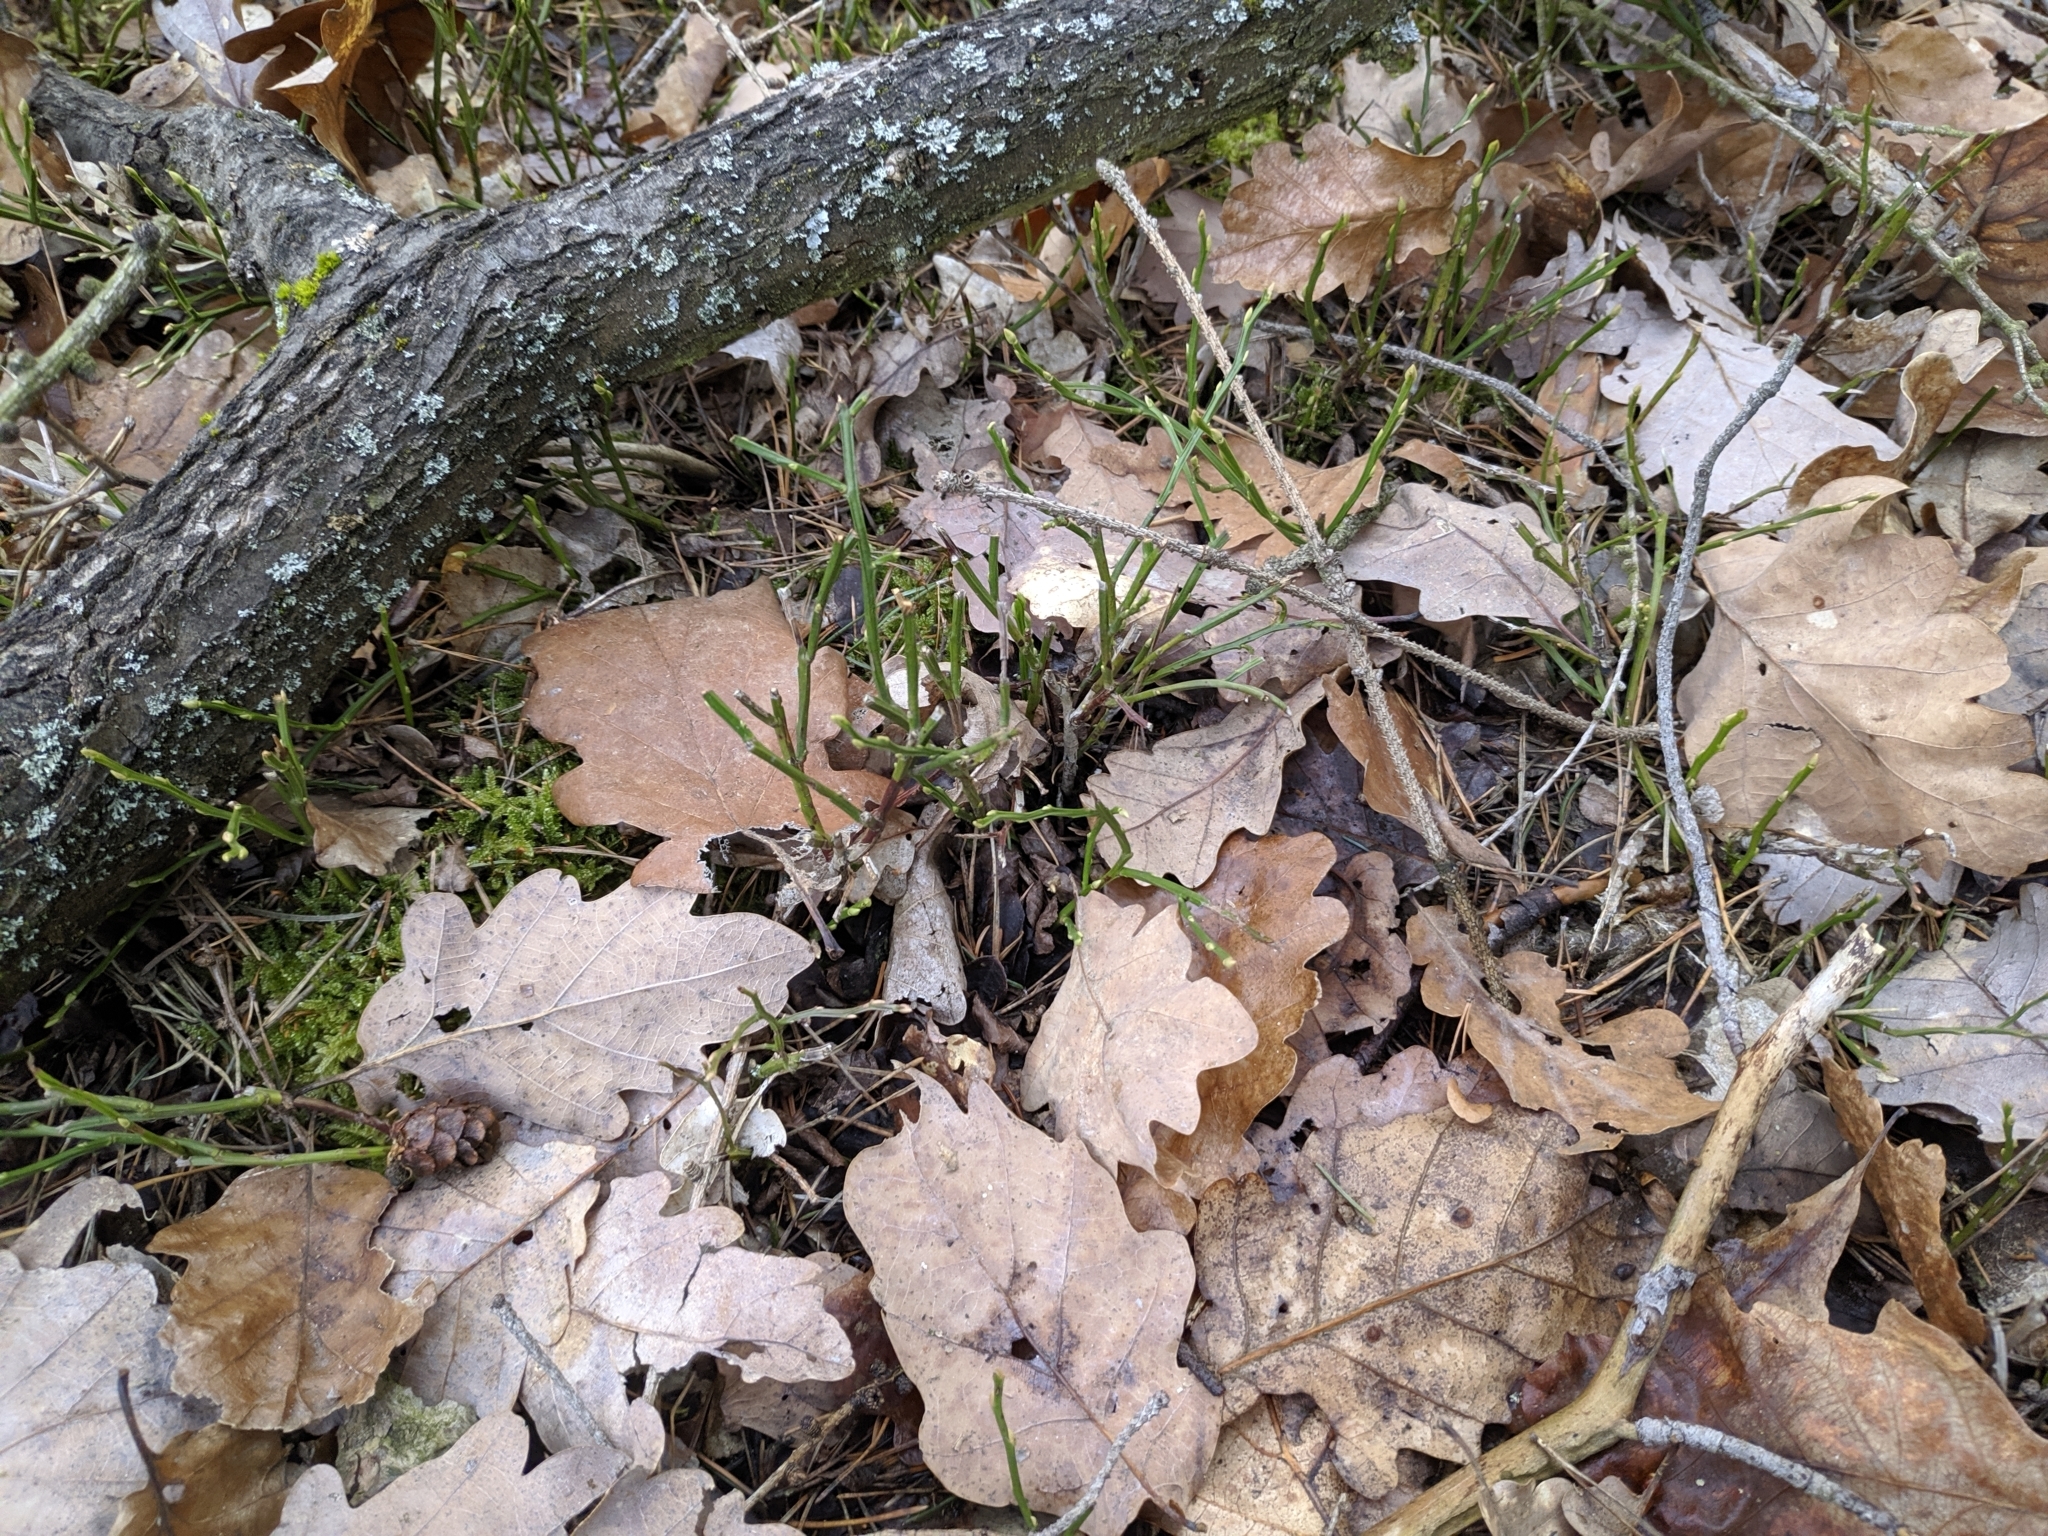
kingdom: Plantae
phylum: Tracheophyta
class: Magnoliopsida
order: Ericales
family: Ericaceae
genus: Vaccinium
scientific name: Vaccinium myrtillus
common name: Bilberry
